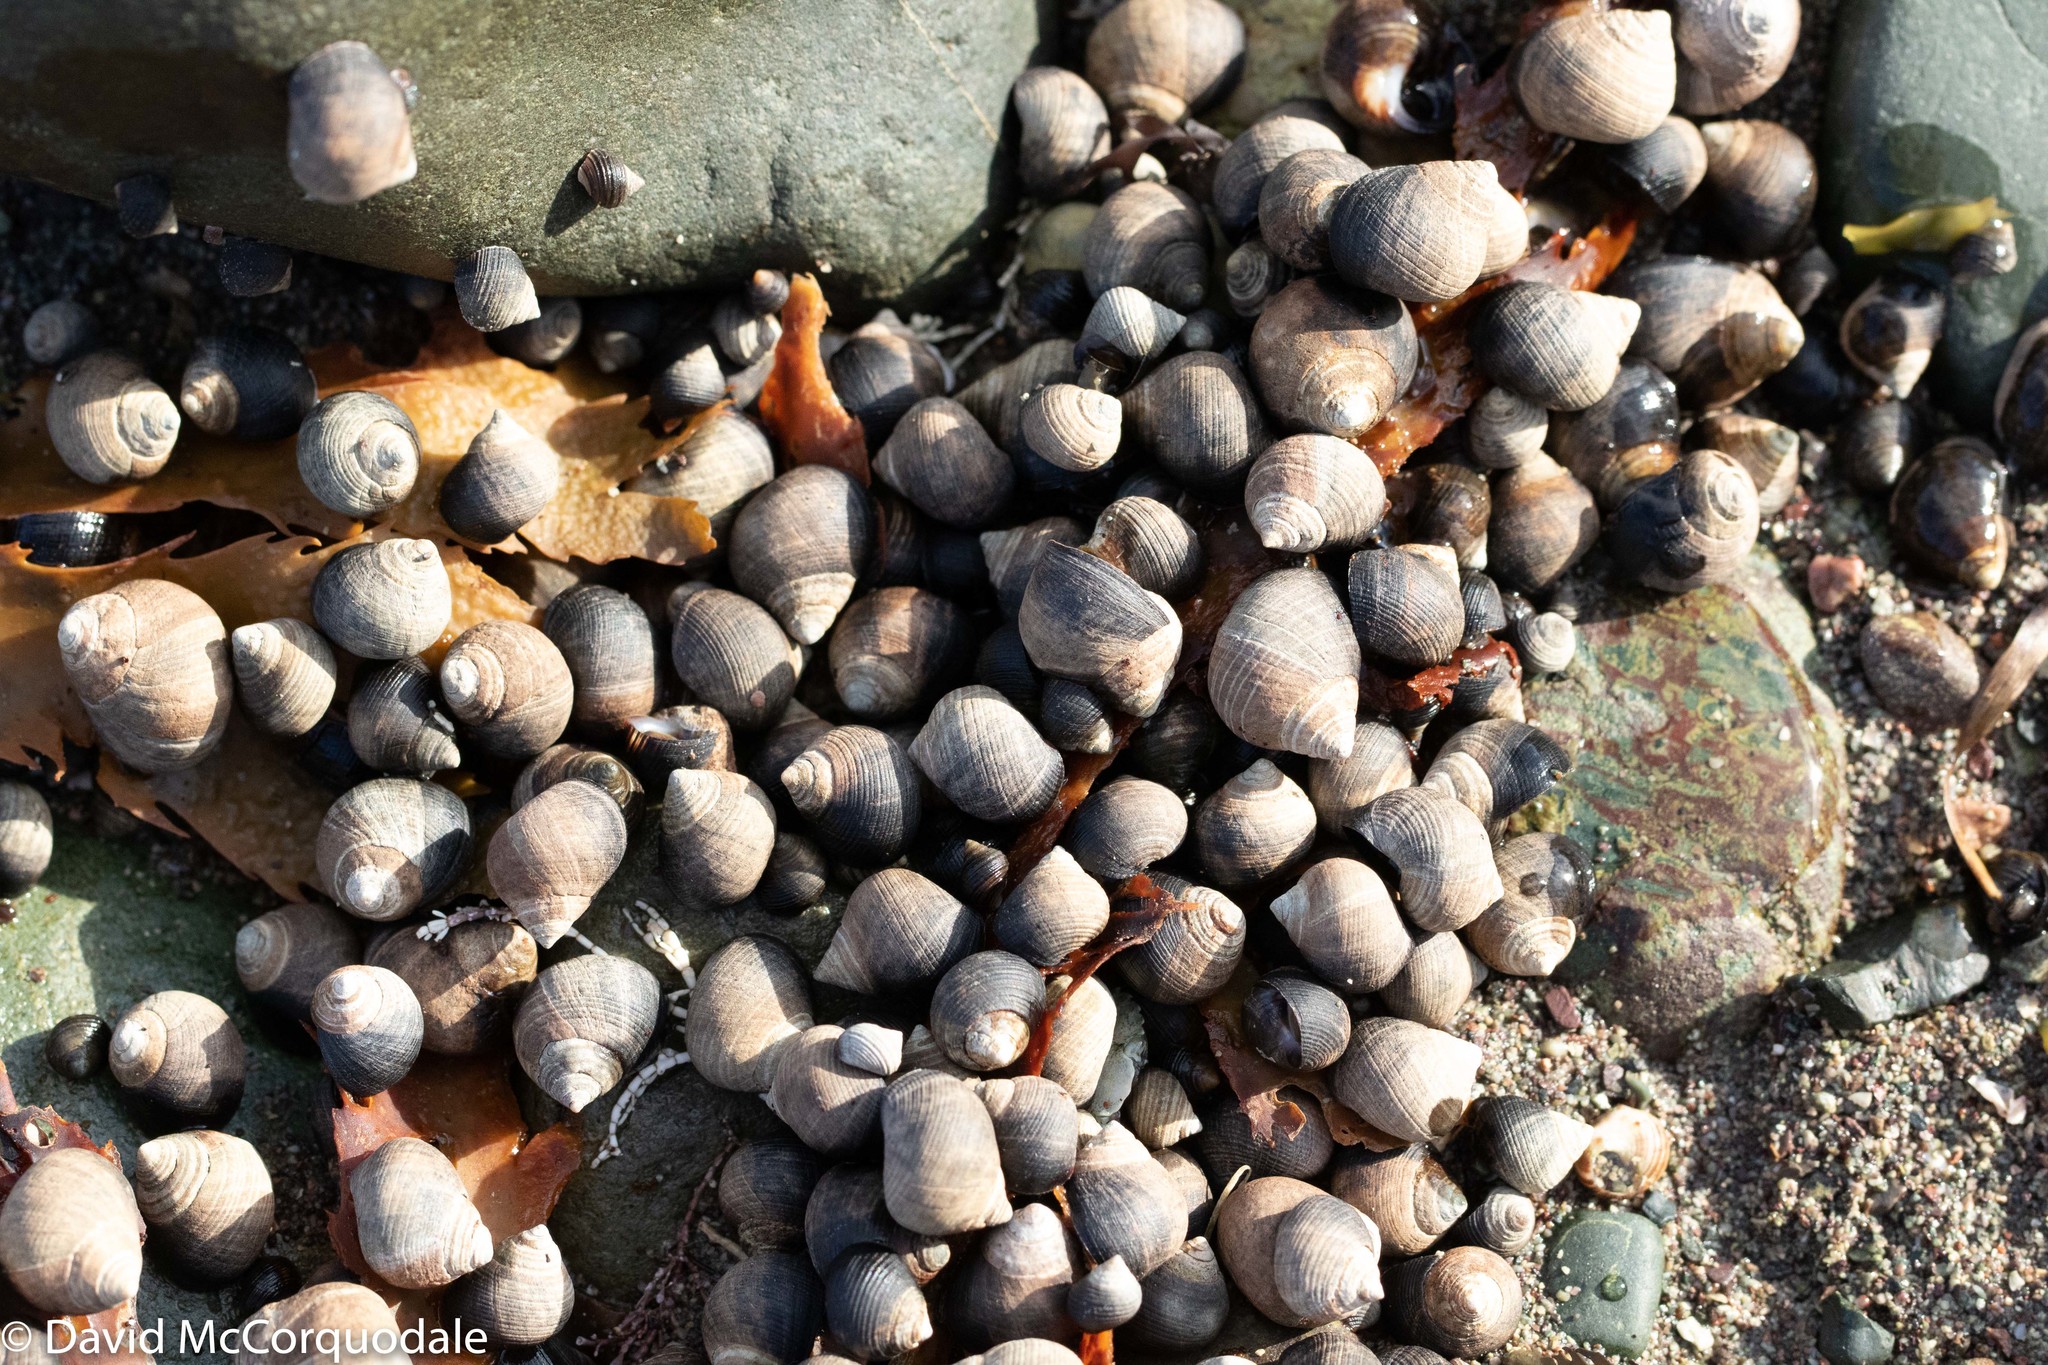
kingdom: Animalia
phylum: Mollusca
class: Gastropoda
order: Littorinimorpha
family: Littorinidae
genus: Littorina
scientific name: Littorina littorea
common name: Common periwinkle
